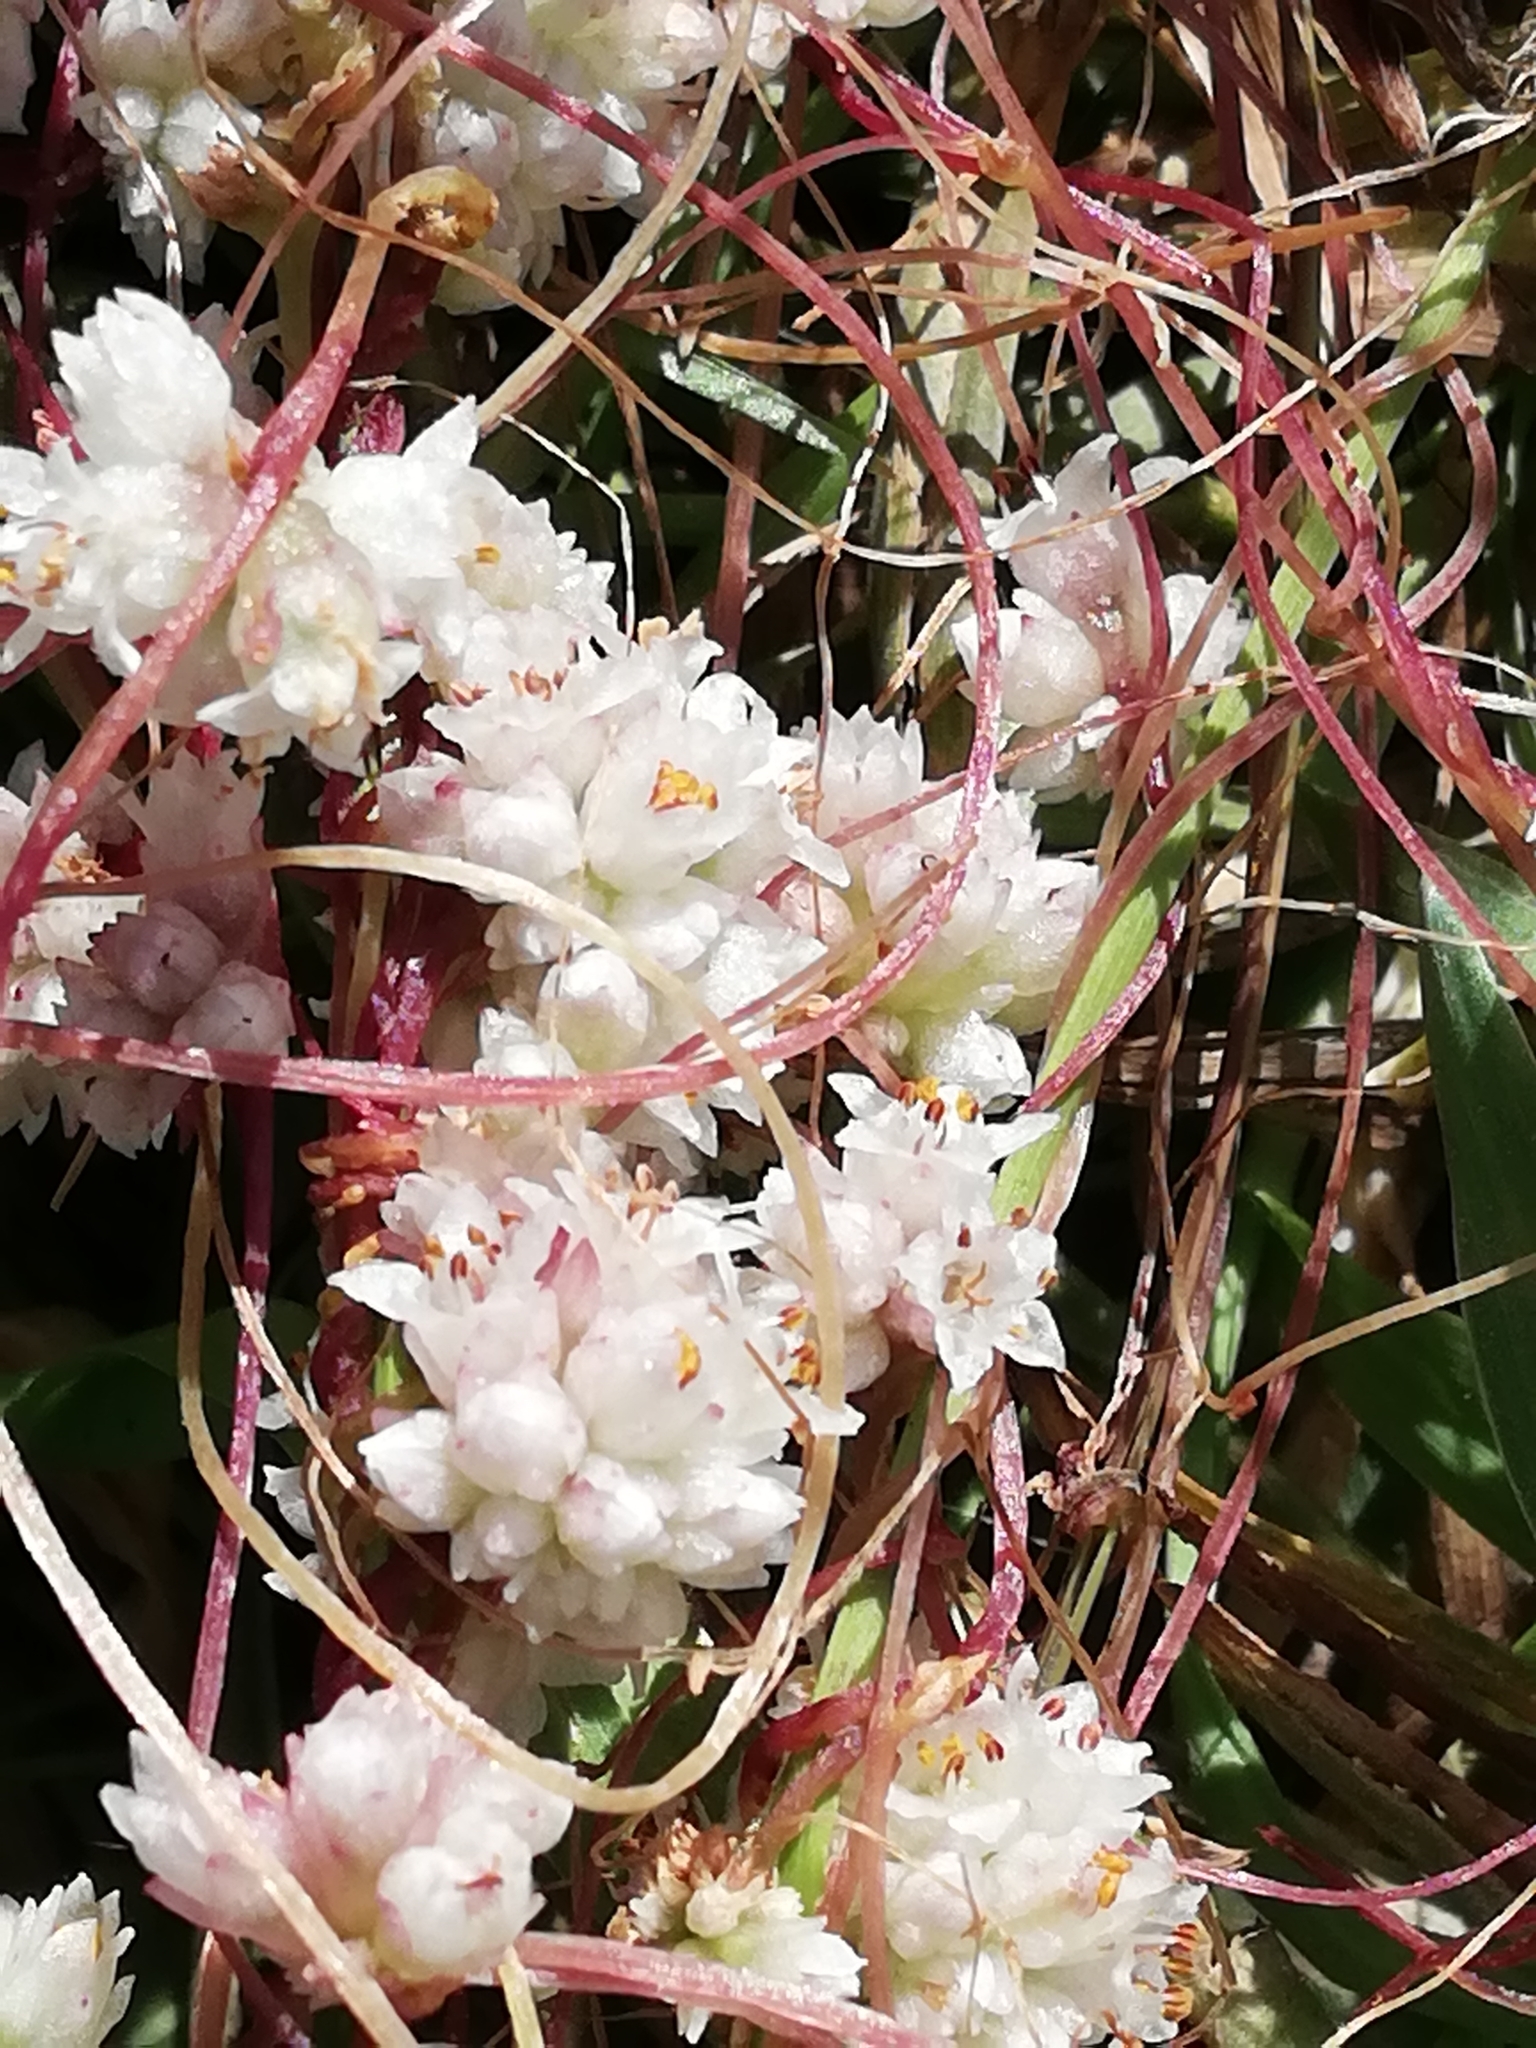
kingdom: Plantae
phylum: Tracheophyta
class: Magnoliopsida
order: Solanales
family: Convolvulaceae
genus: Cuscuta
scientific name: Cuscuta epithymum
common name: Clover dodder
